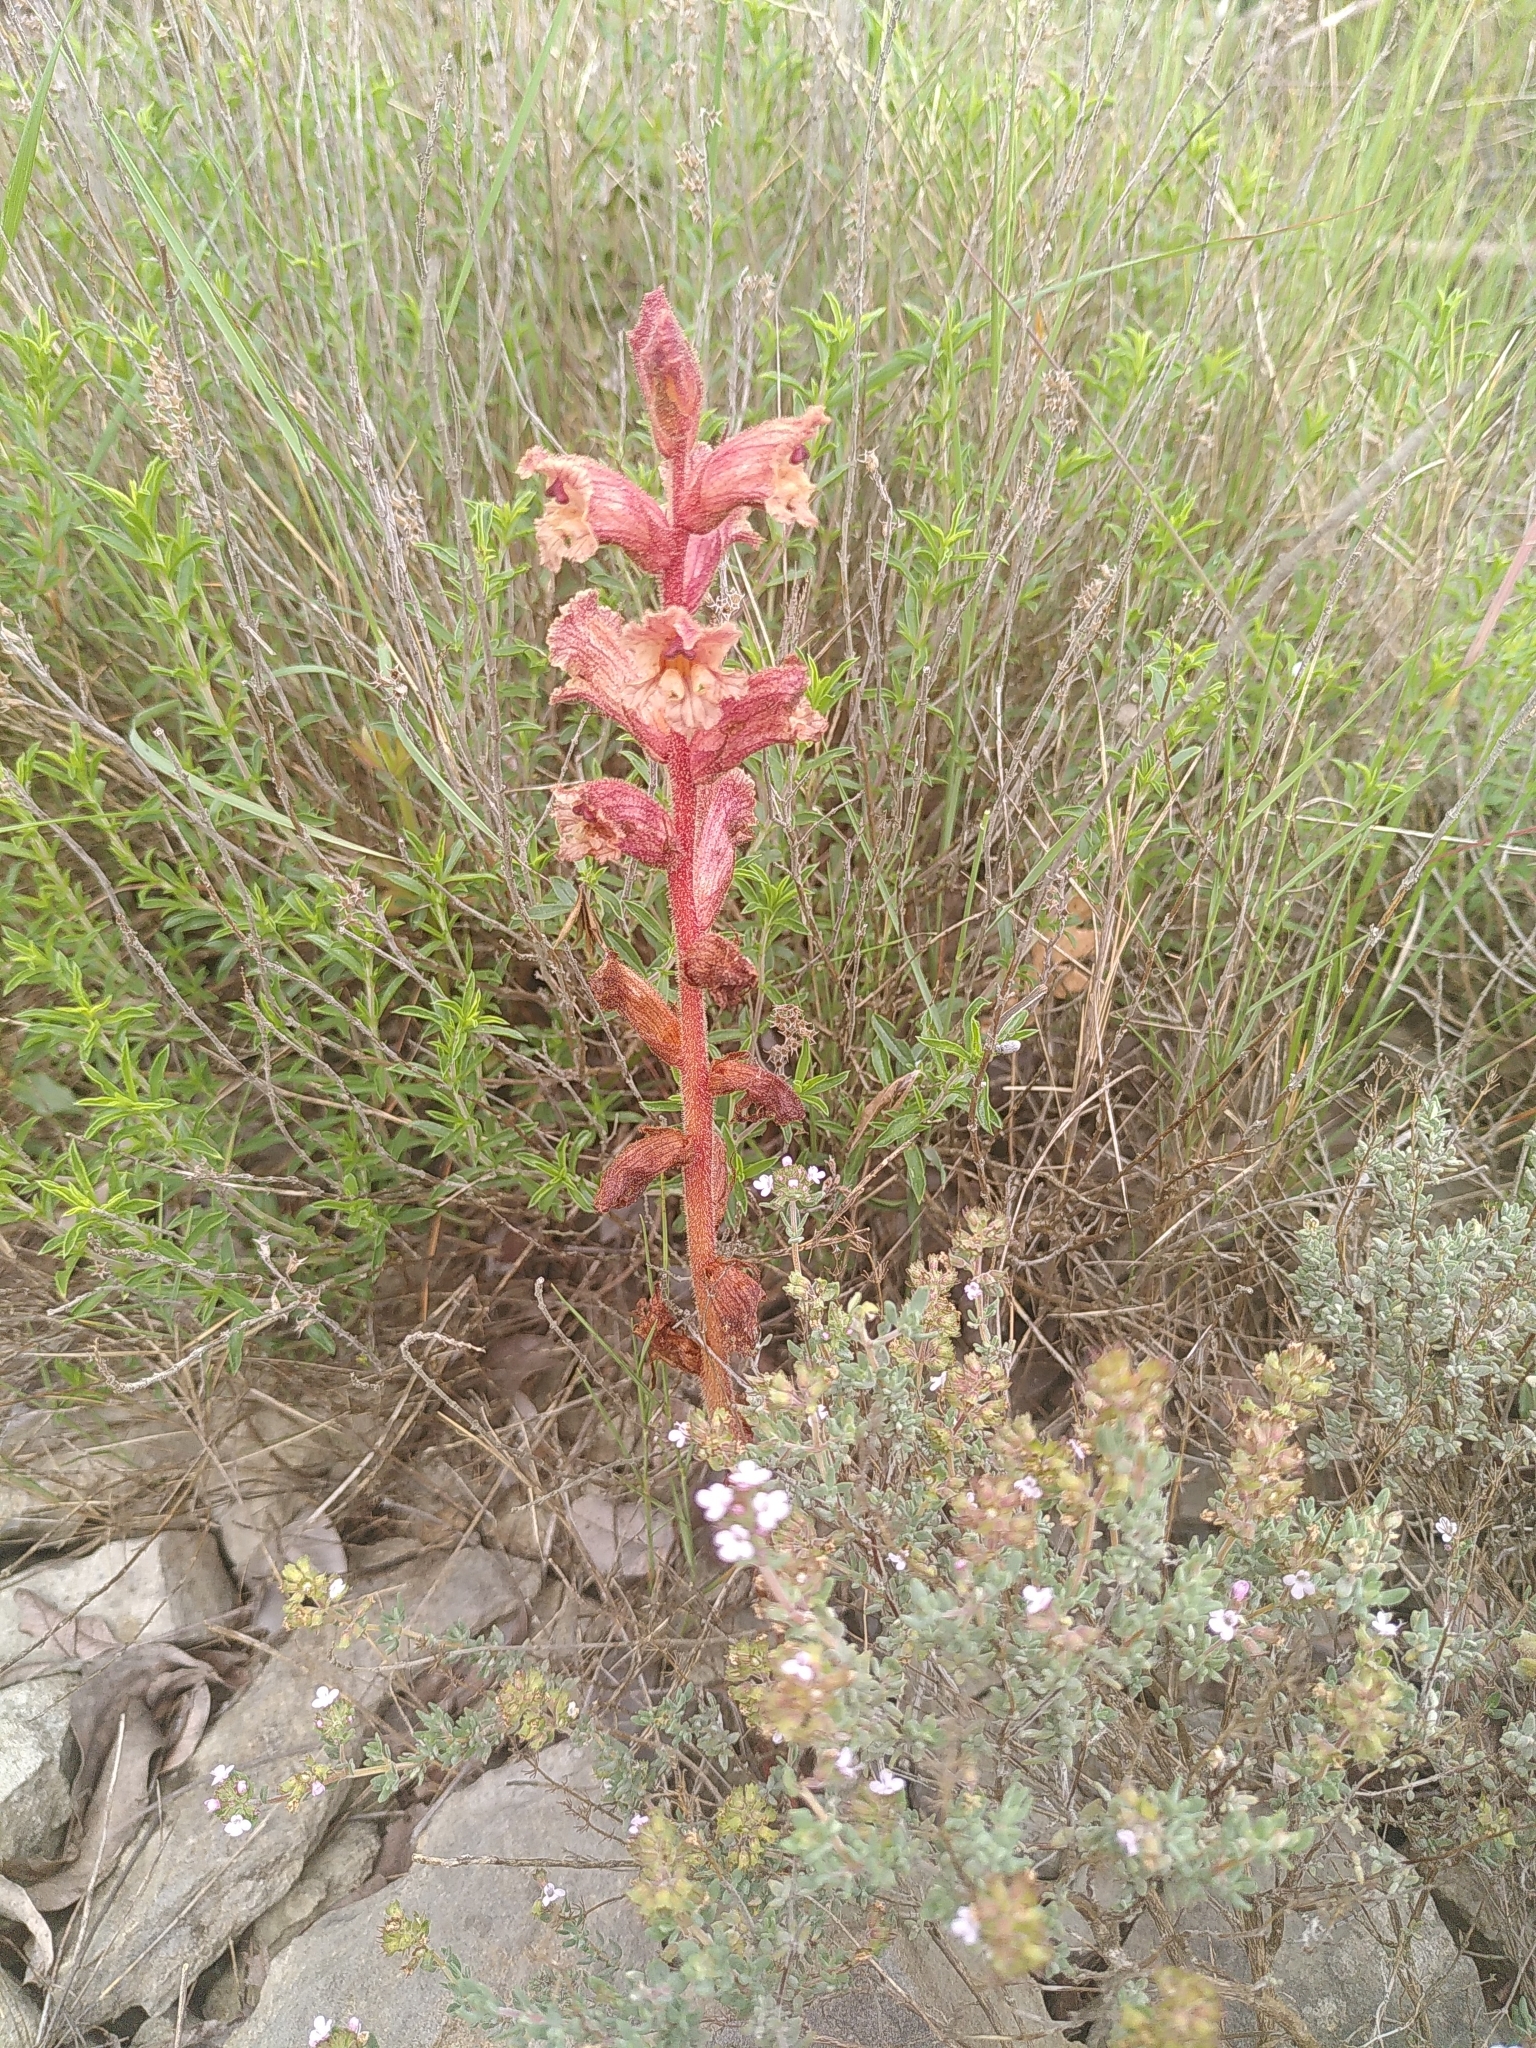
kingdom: Plantae
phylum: Tracheophyta
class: Magnoliopsida
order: Lamiales
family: Orobanchaceae
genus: Orobanche
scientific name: Orobanche alba
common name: Thyme broomrape
